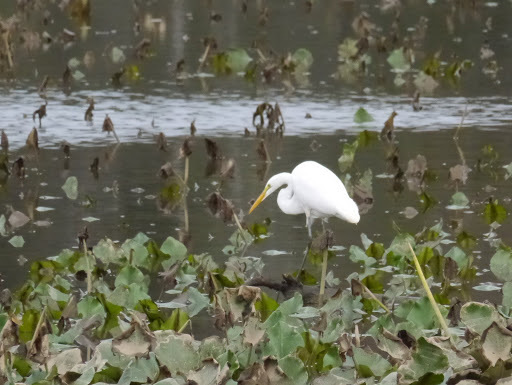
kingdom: Animalia
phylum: Chordata
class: Aves
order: Pelecaniformes
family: Ardeidae
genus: Ardea
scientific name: Ardea alba
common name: Great egret
